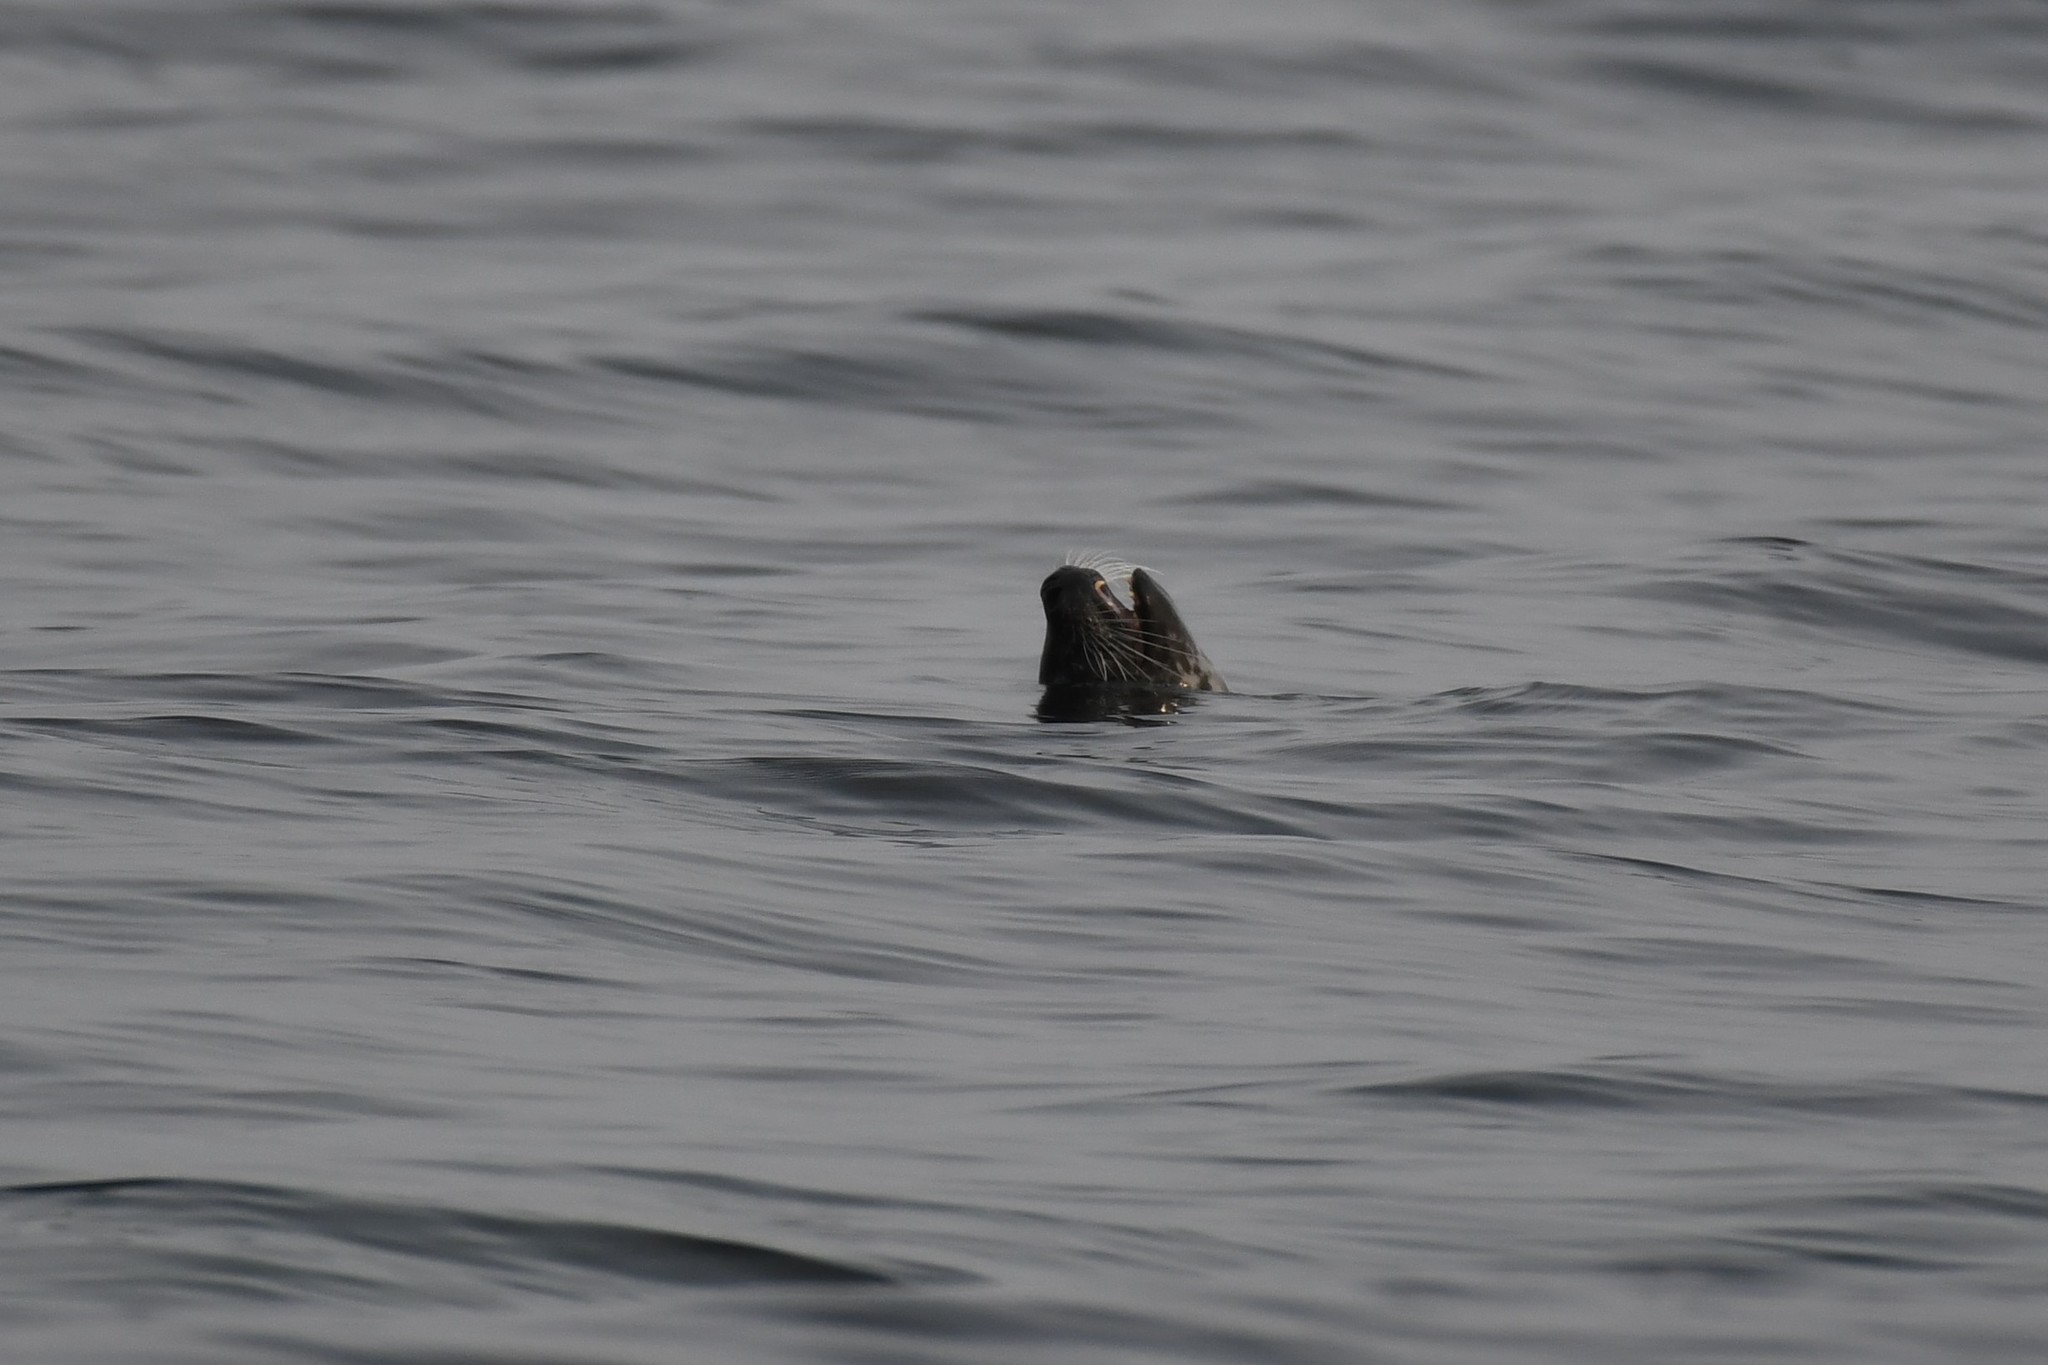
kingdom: Animalia
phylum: Chordata
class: Mammalia
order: Carnivora
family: Phocidae
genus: Phoca
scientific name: Phoca vitulina
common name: Harbor seal
